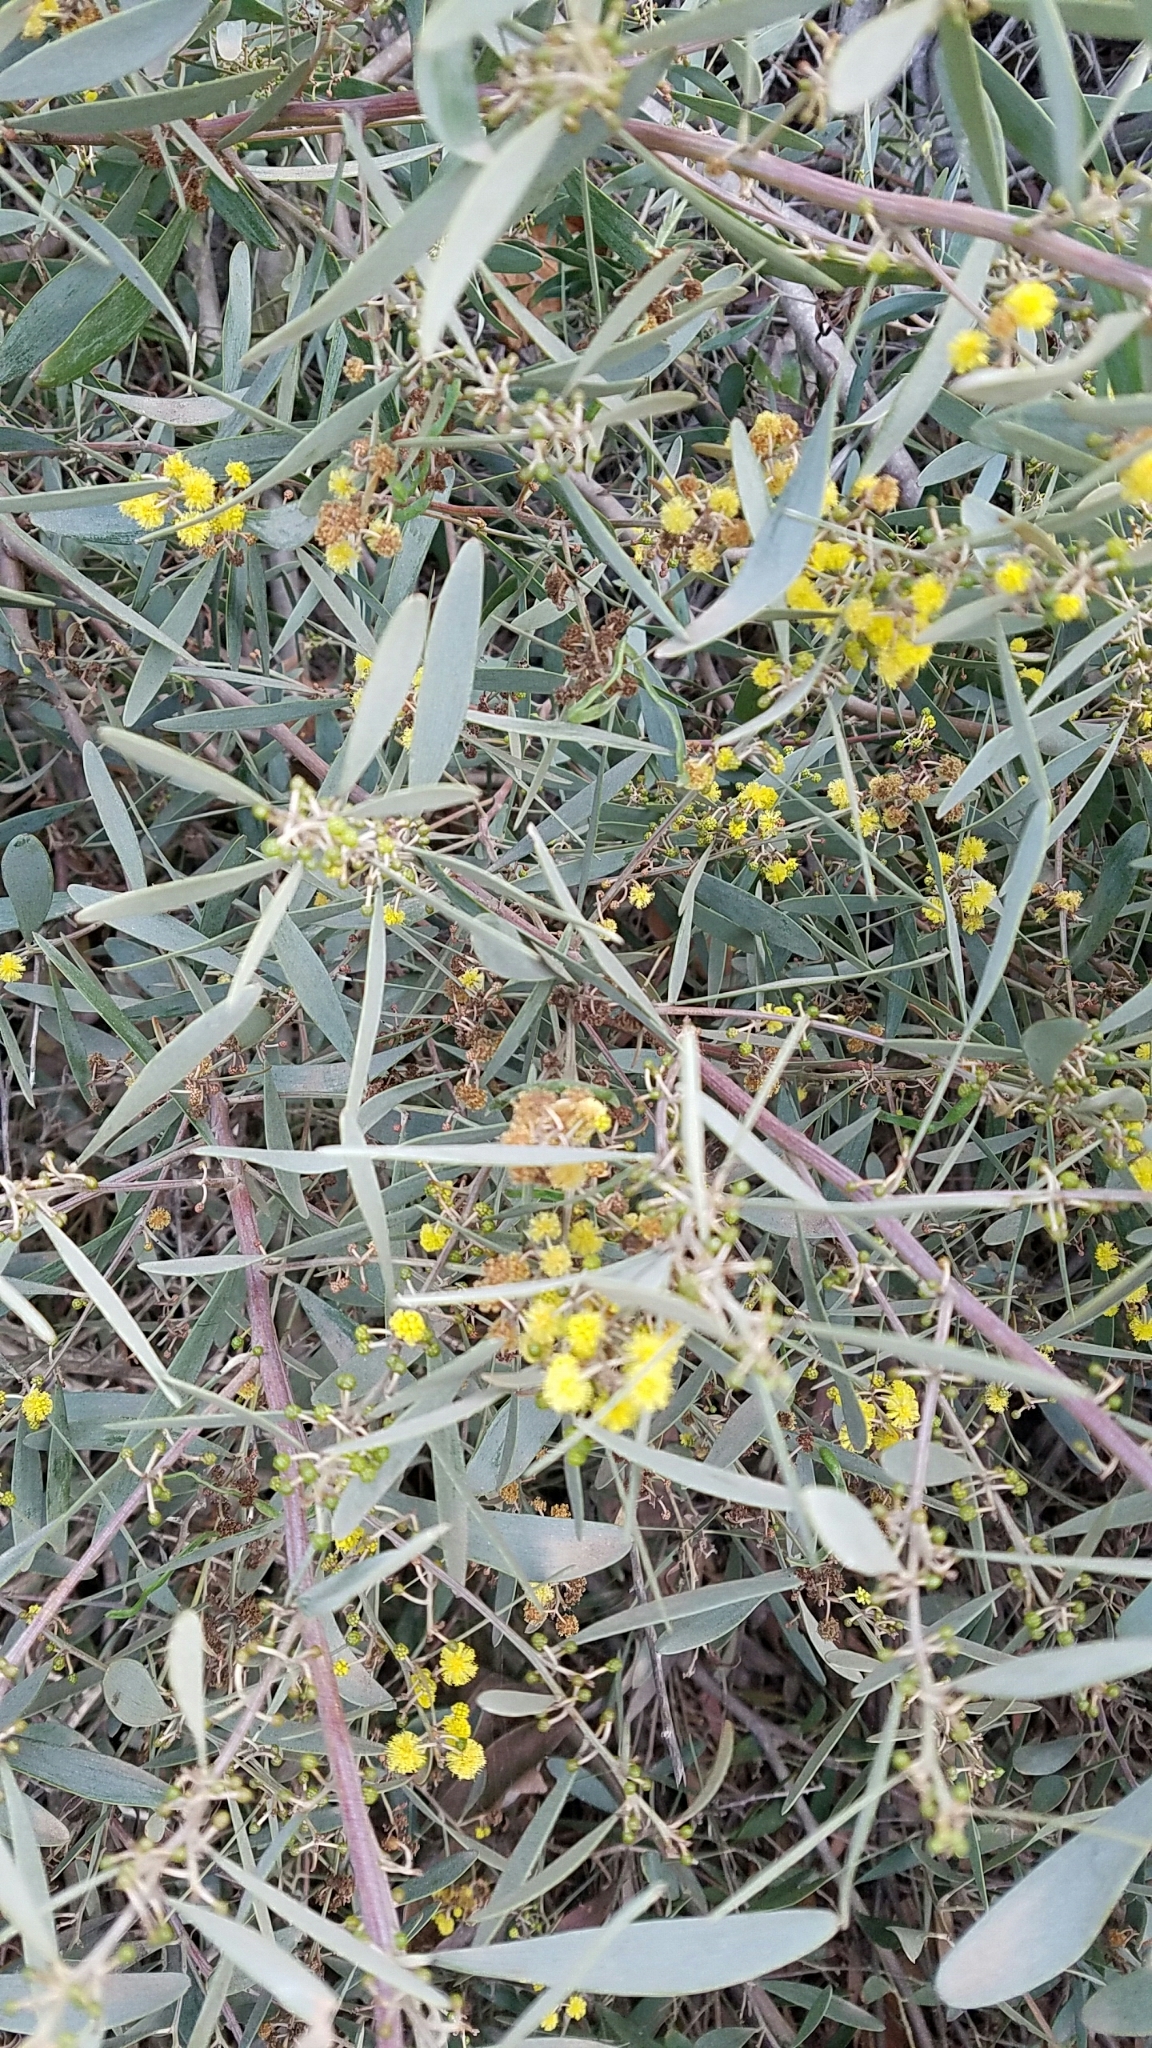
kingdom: Plantae
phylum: Tracheophyta
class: Magnoliopsida
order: Fabales
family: Fabaceae
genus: Acacia
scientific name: Acacia redolens
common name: Bank catclaw
